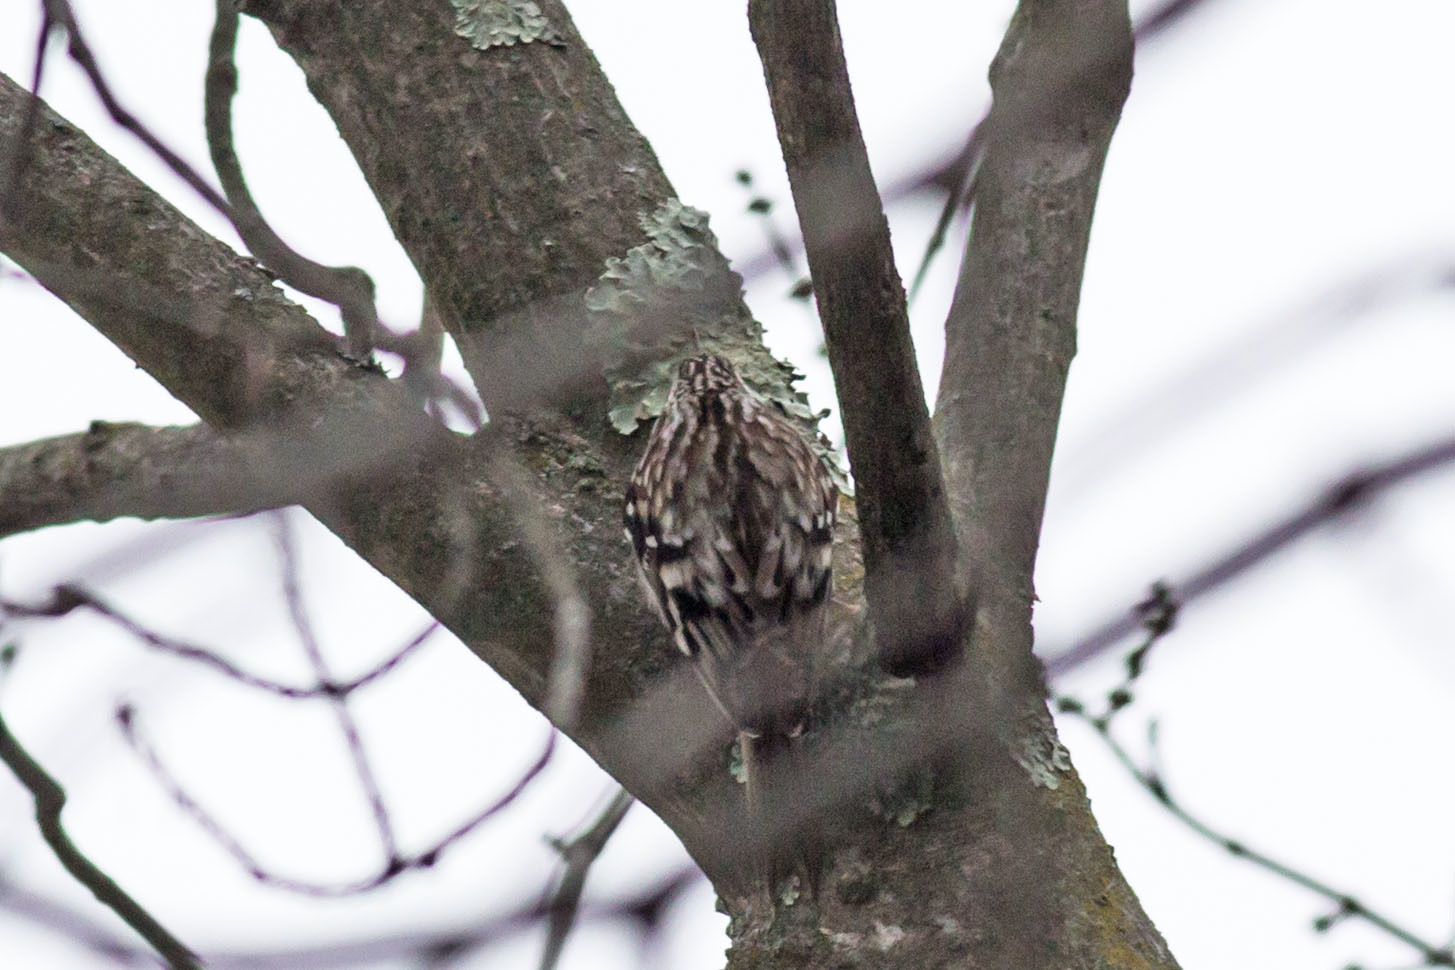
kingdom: Animalia
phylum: Chordata
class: Aves
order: Passeriformes
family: Certhiidae
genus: Certhia
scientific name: Certhia americana
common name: Brown creeper
